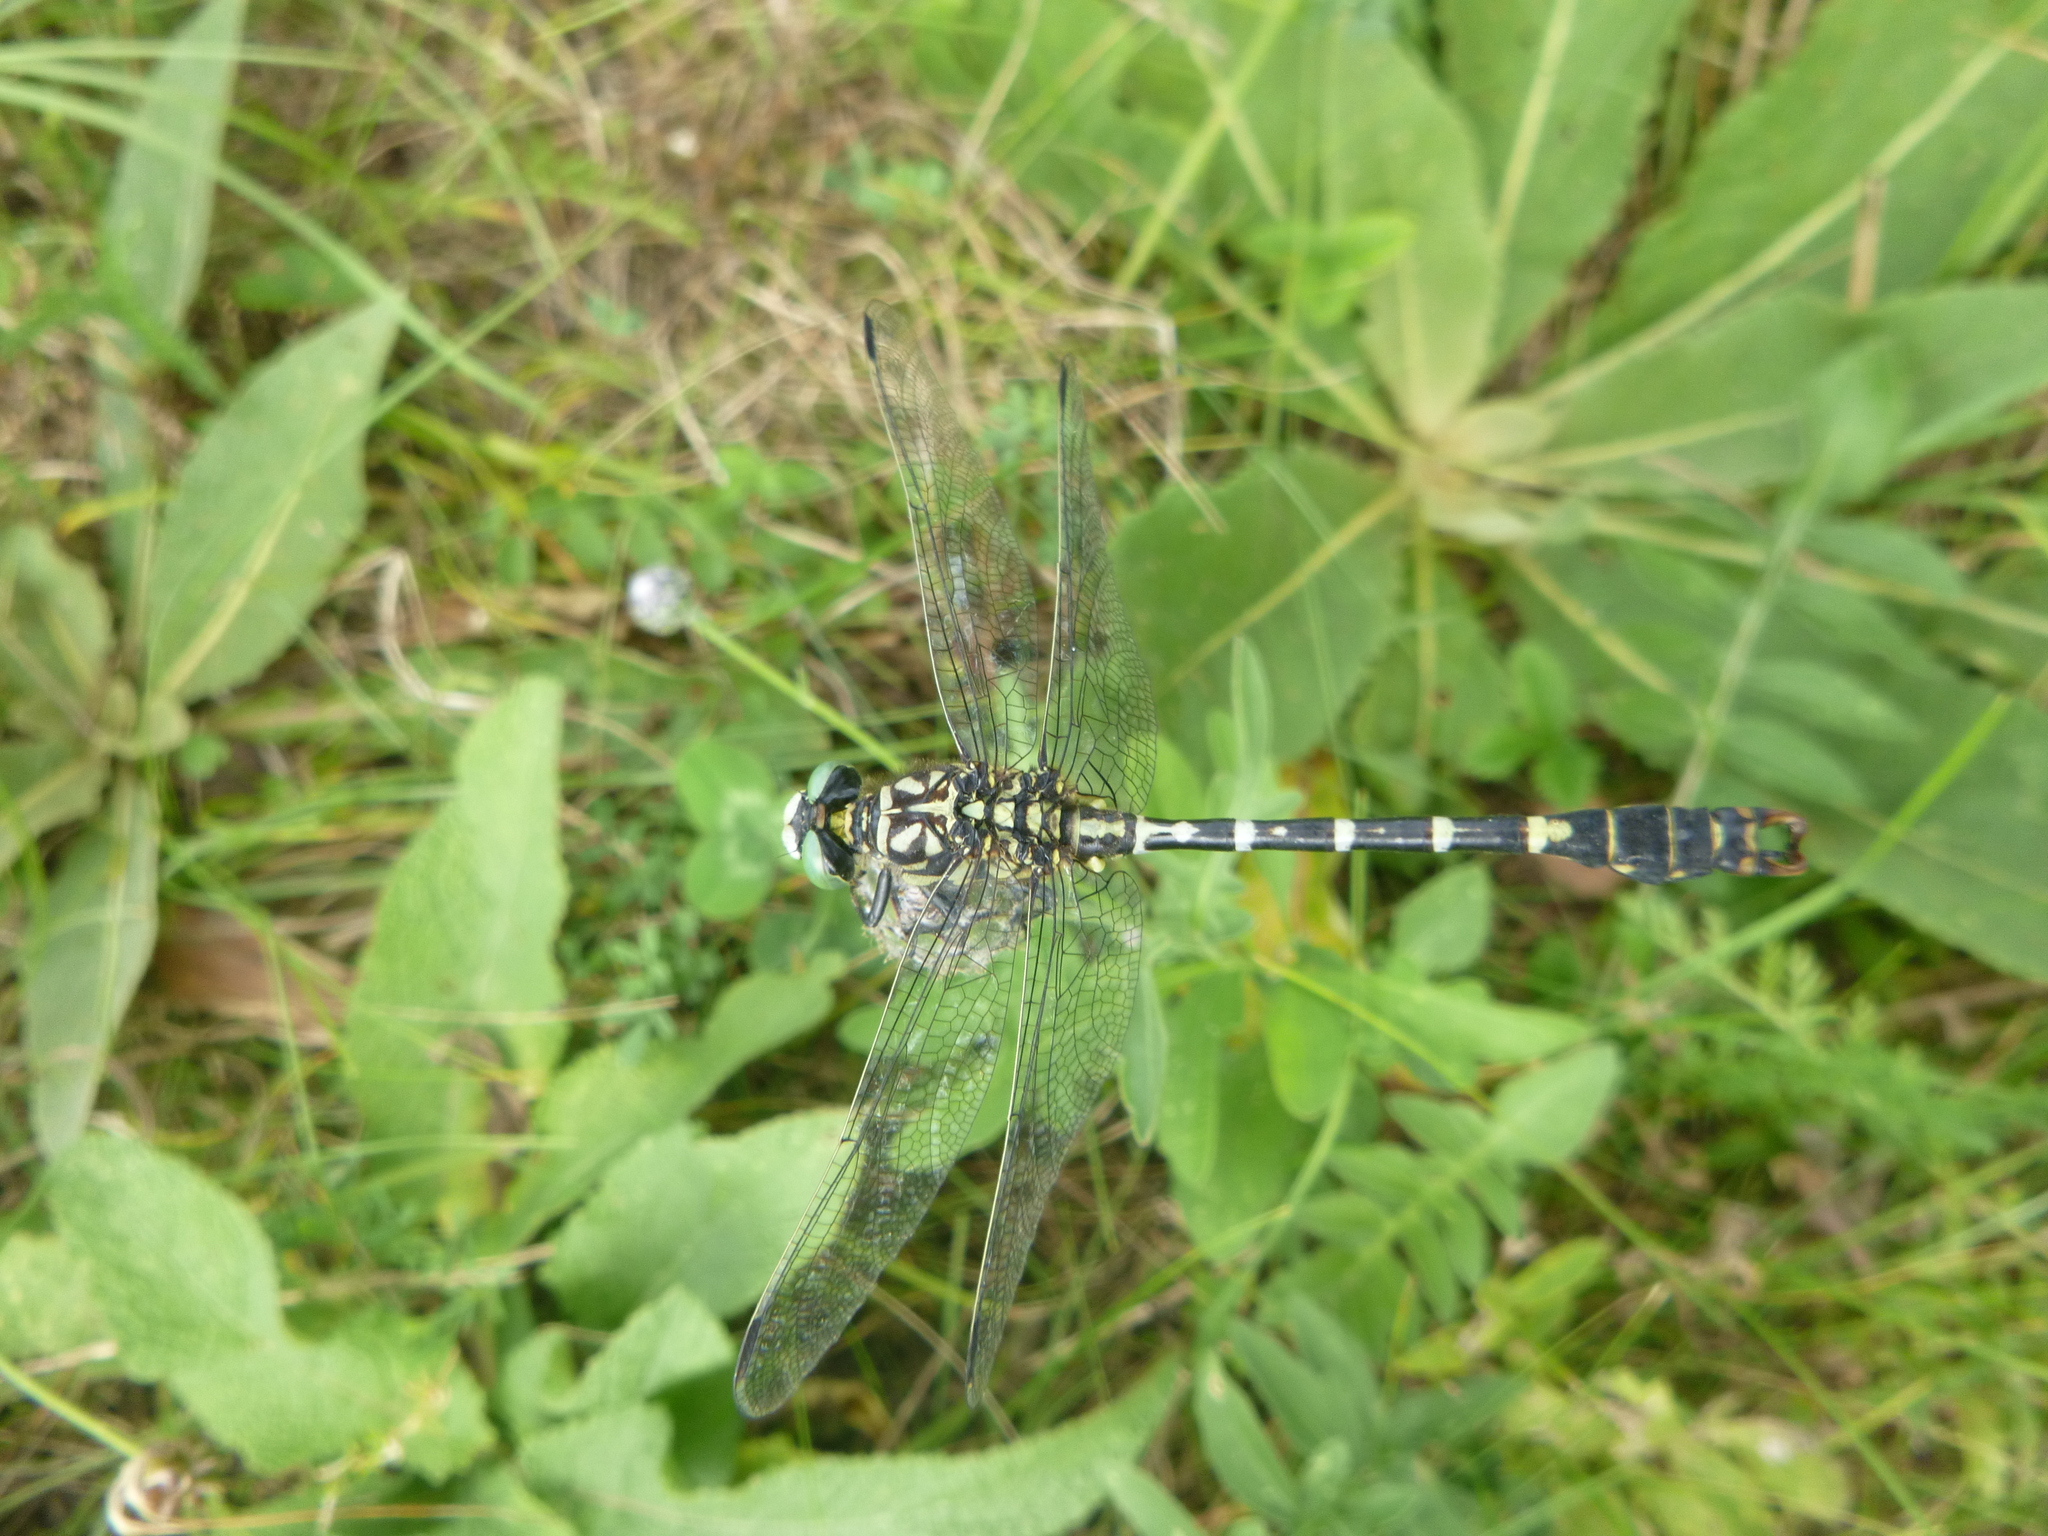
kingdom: Animalia
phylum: Arthropoda
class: Insecta
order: Odonata
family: Gomphidae
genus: Onychogomphus
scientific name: Onychogomphus forcipatus
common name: Small pincertail
